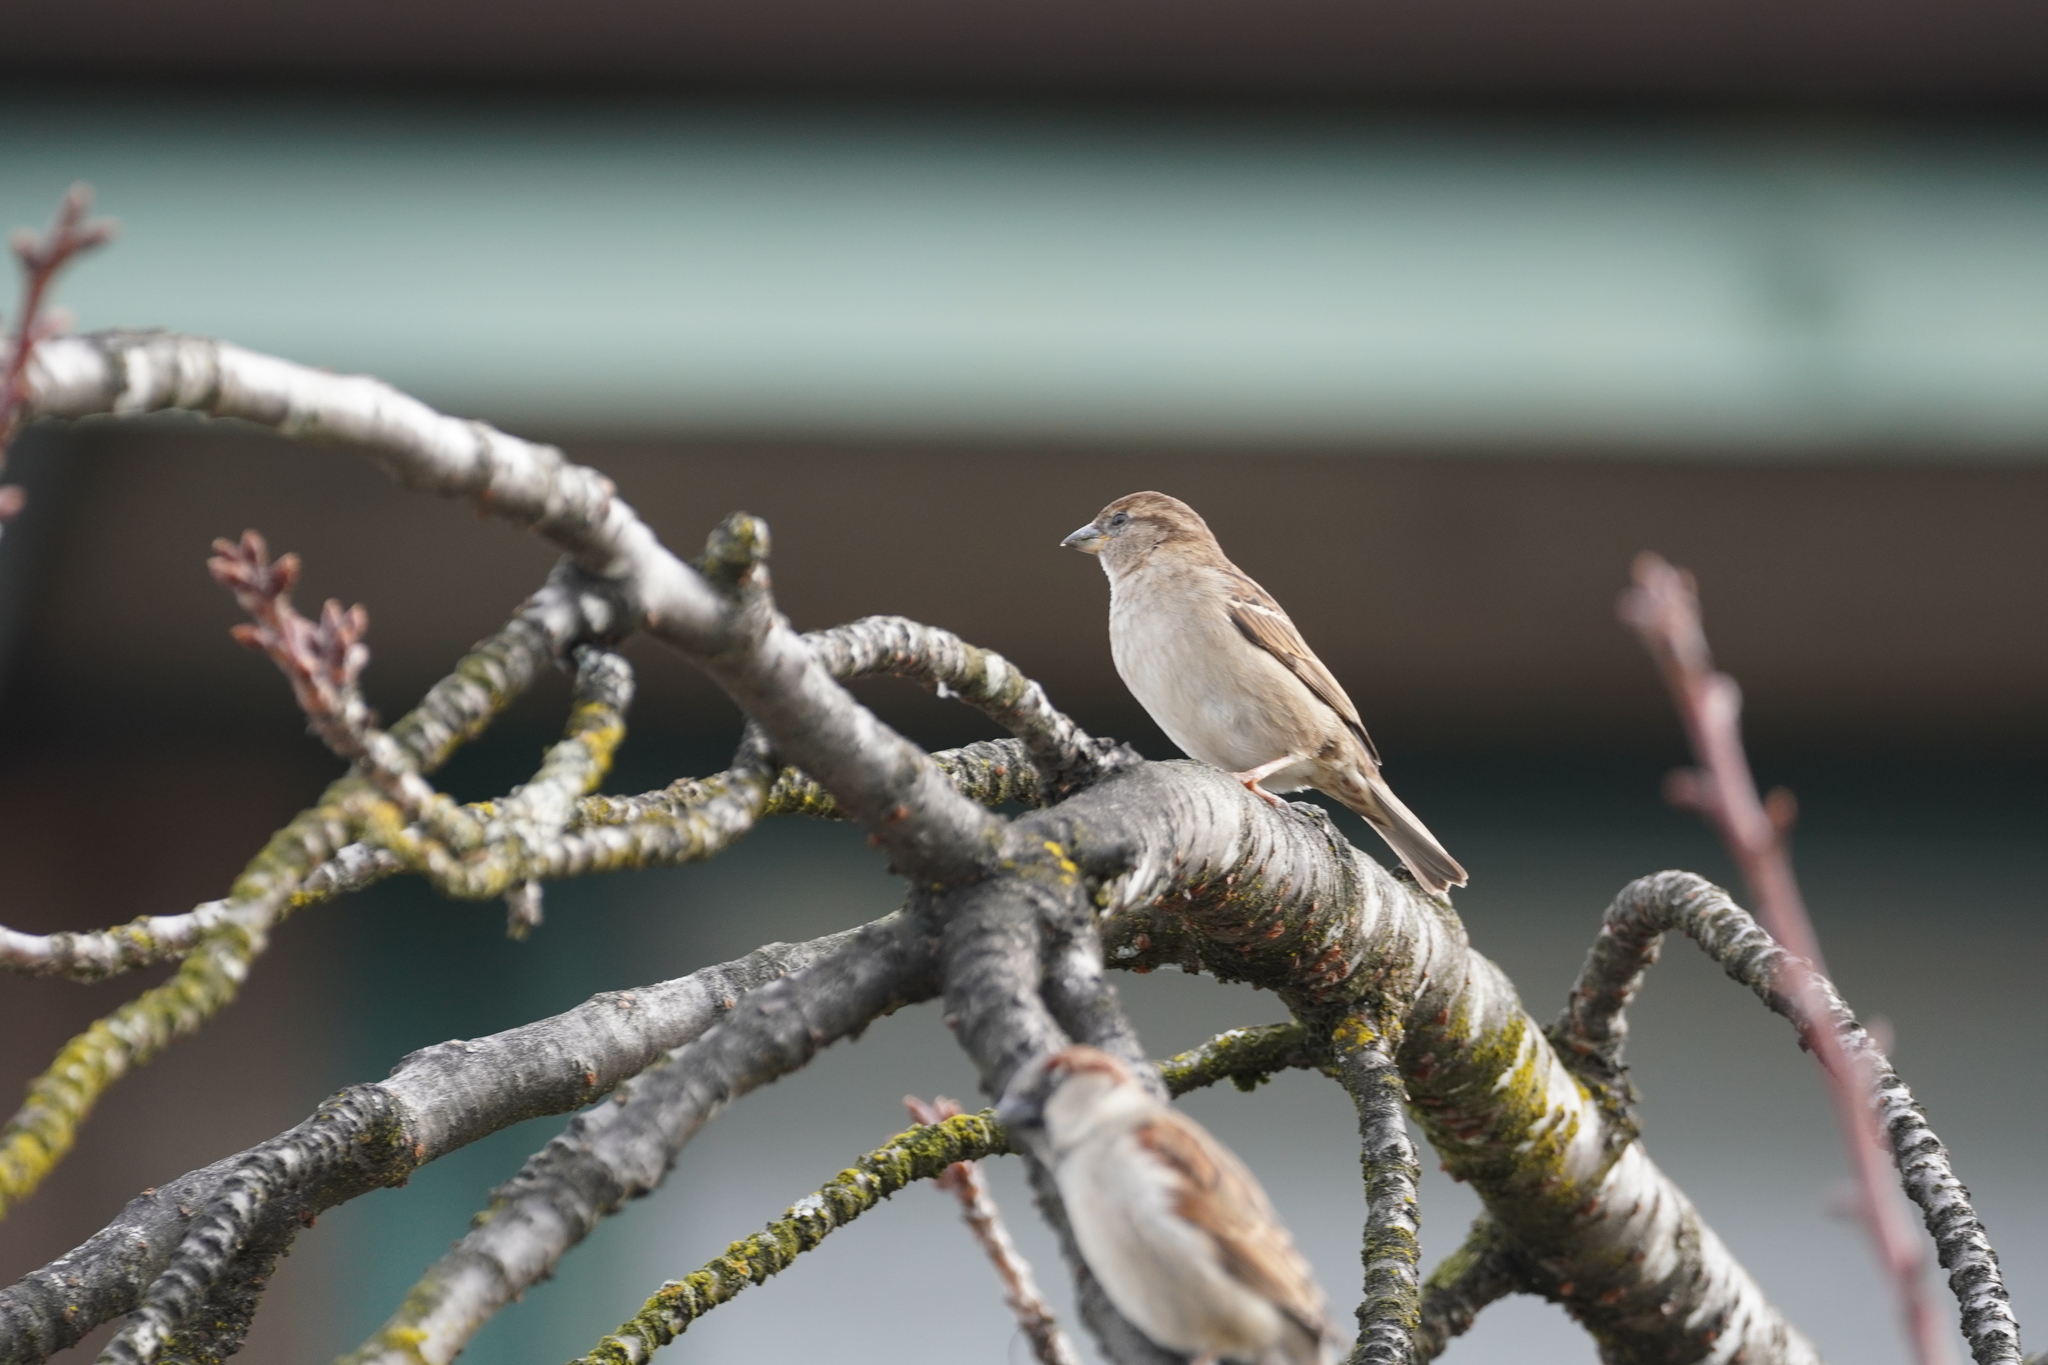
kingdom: Animalia
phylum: Chordata
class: Aves
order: Passeriformes
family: Passeridae
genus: Passer
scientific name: Passer domesticus
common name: House sparrow
